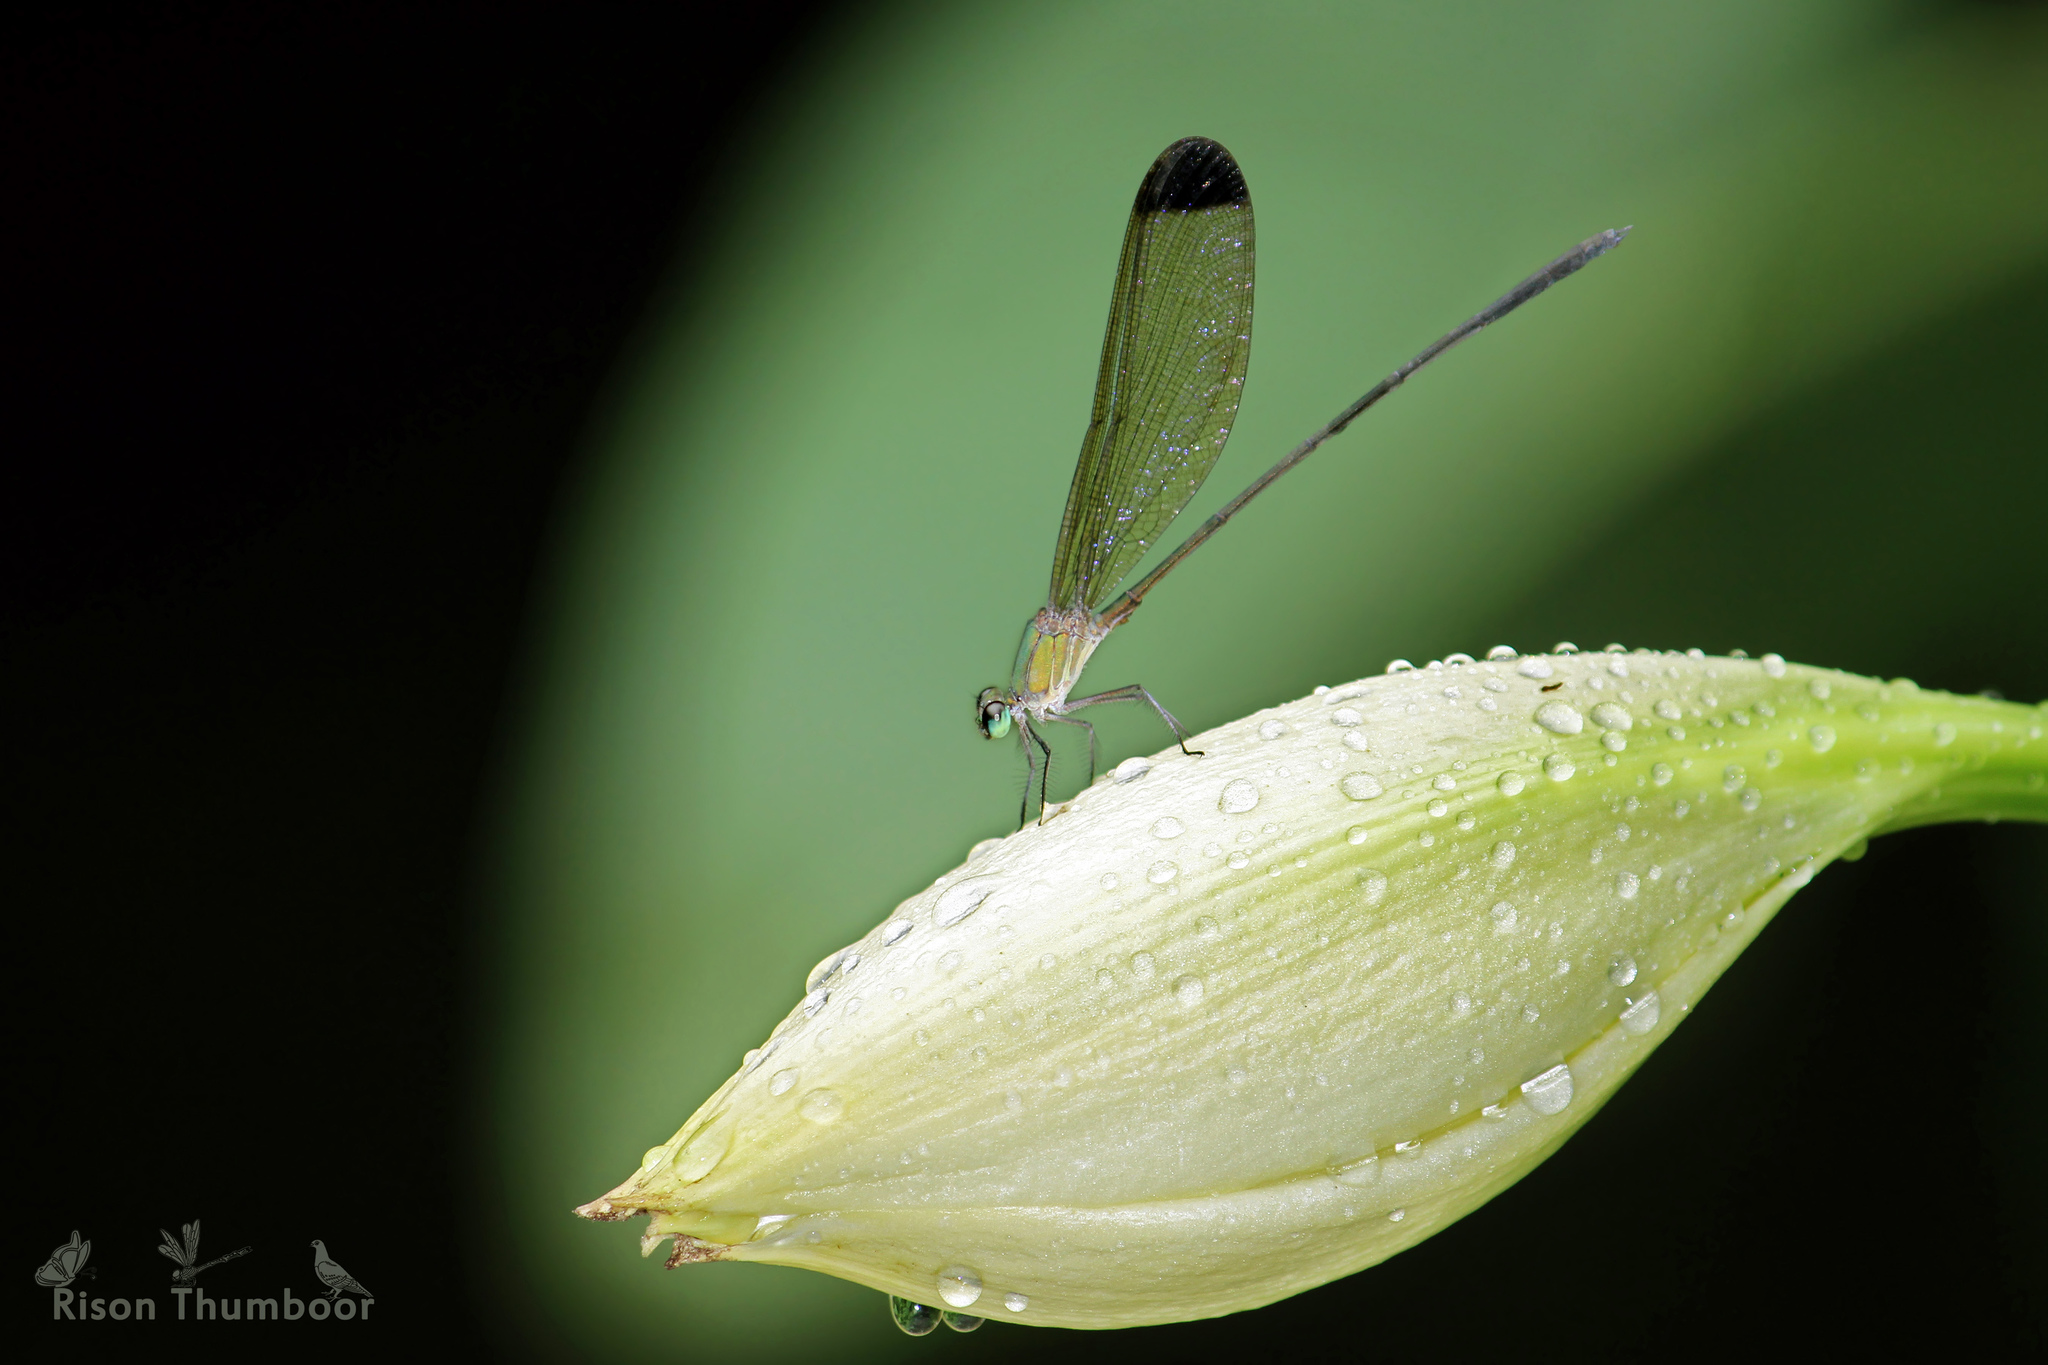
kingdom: Animalia
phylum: Arthropoda
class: Insecta
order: Odonata
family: Calopterygidae
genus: Vestalis
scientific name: Vestalis apicalis
